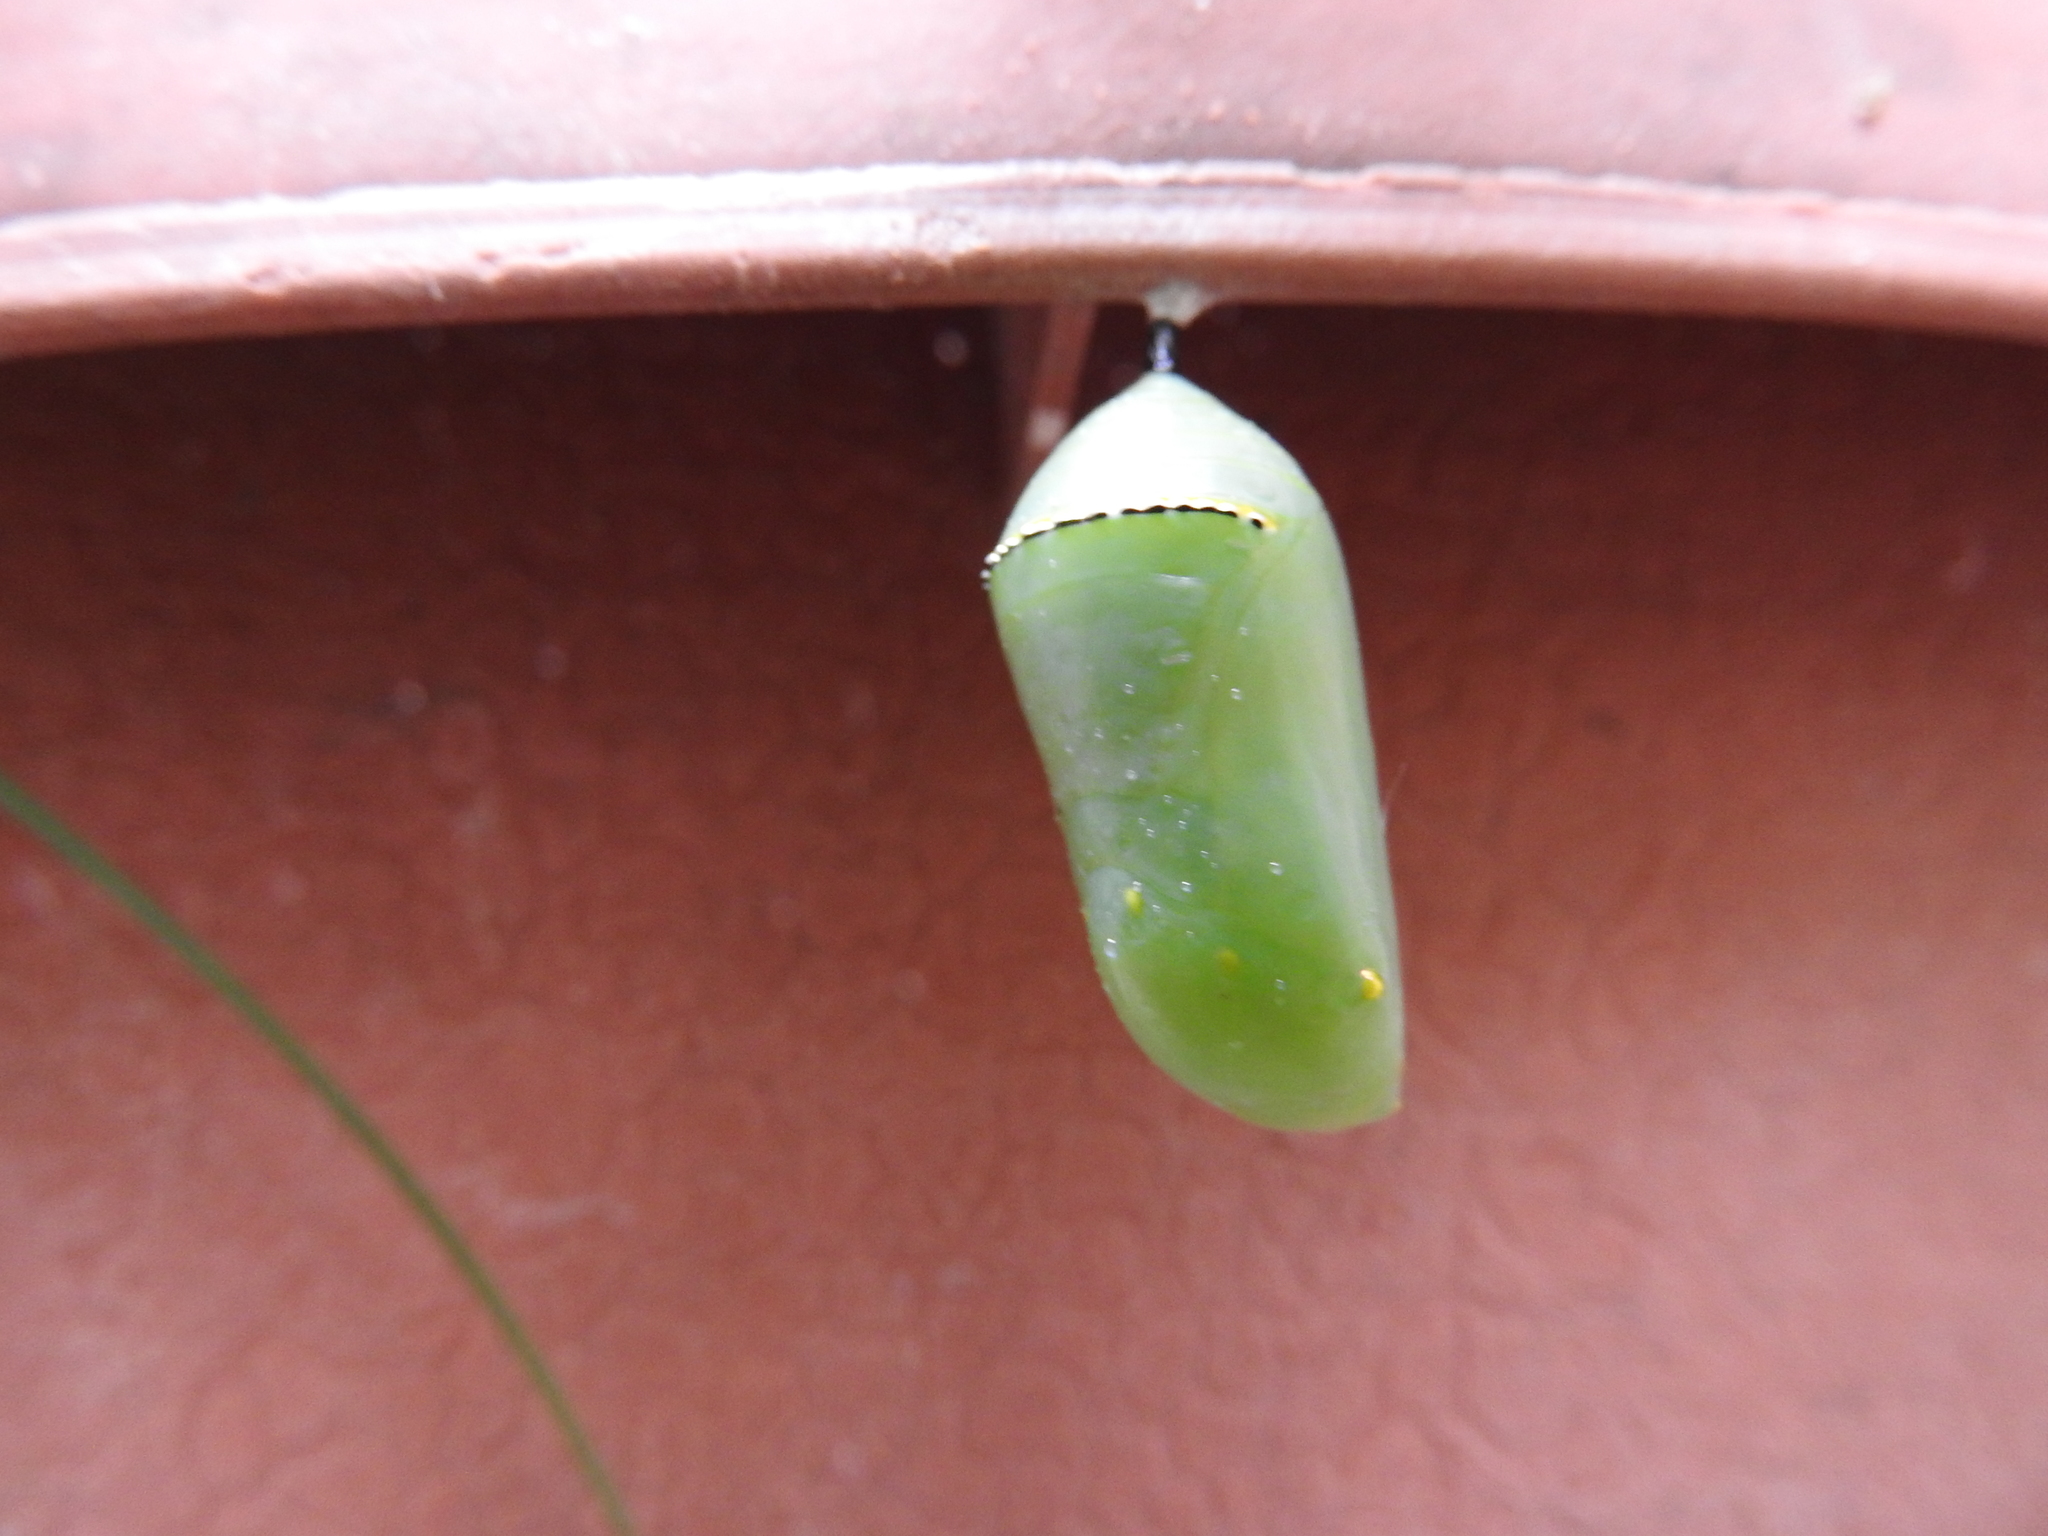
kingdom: Animalia
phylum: Arthropoda
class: Insecta
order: Lepidoptera
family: Nymphalidae
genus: Danaus
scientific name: Danaus plexippus
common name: Monarch
